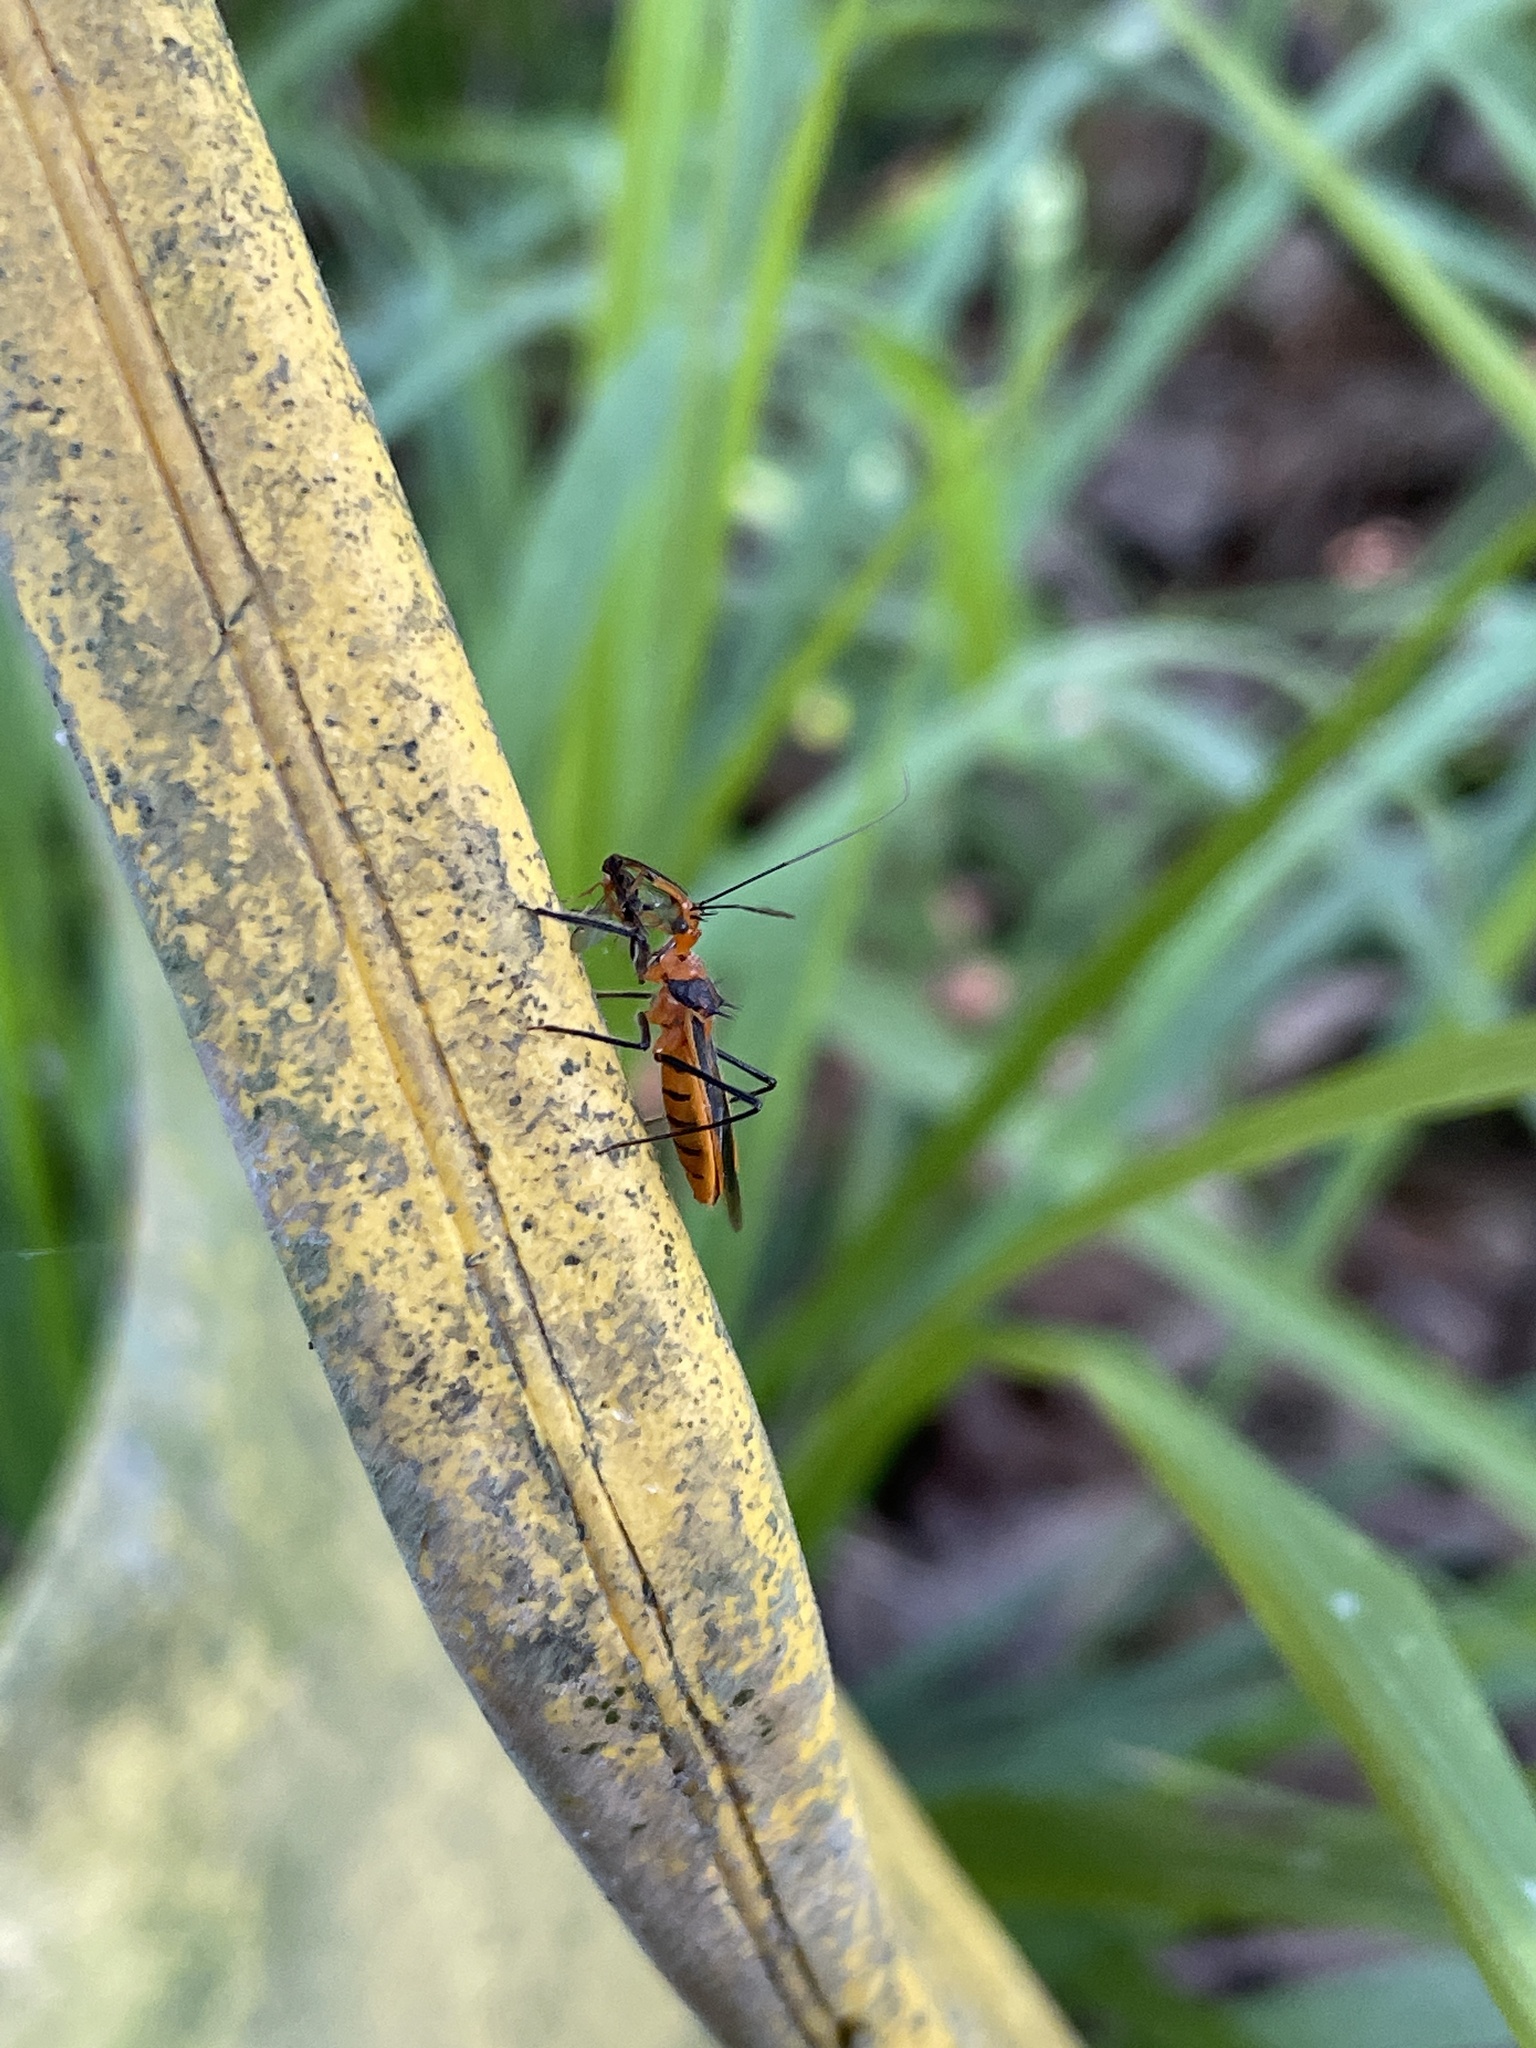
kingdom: Animalia
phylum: Arthropoda
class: Insecta
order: Hemiptera
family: Reduviidae
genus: Repipta
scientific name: Repipta taurus
